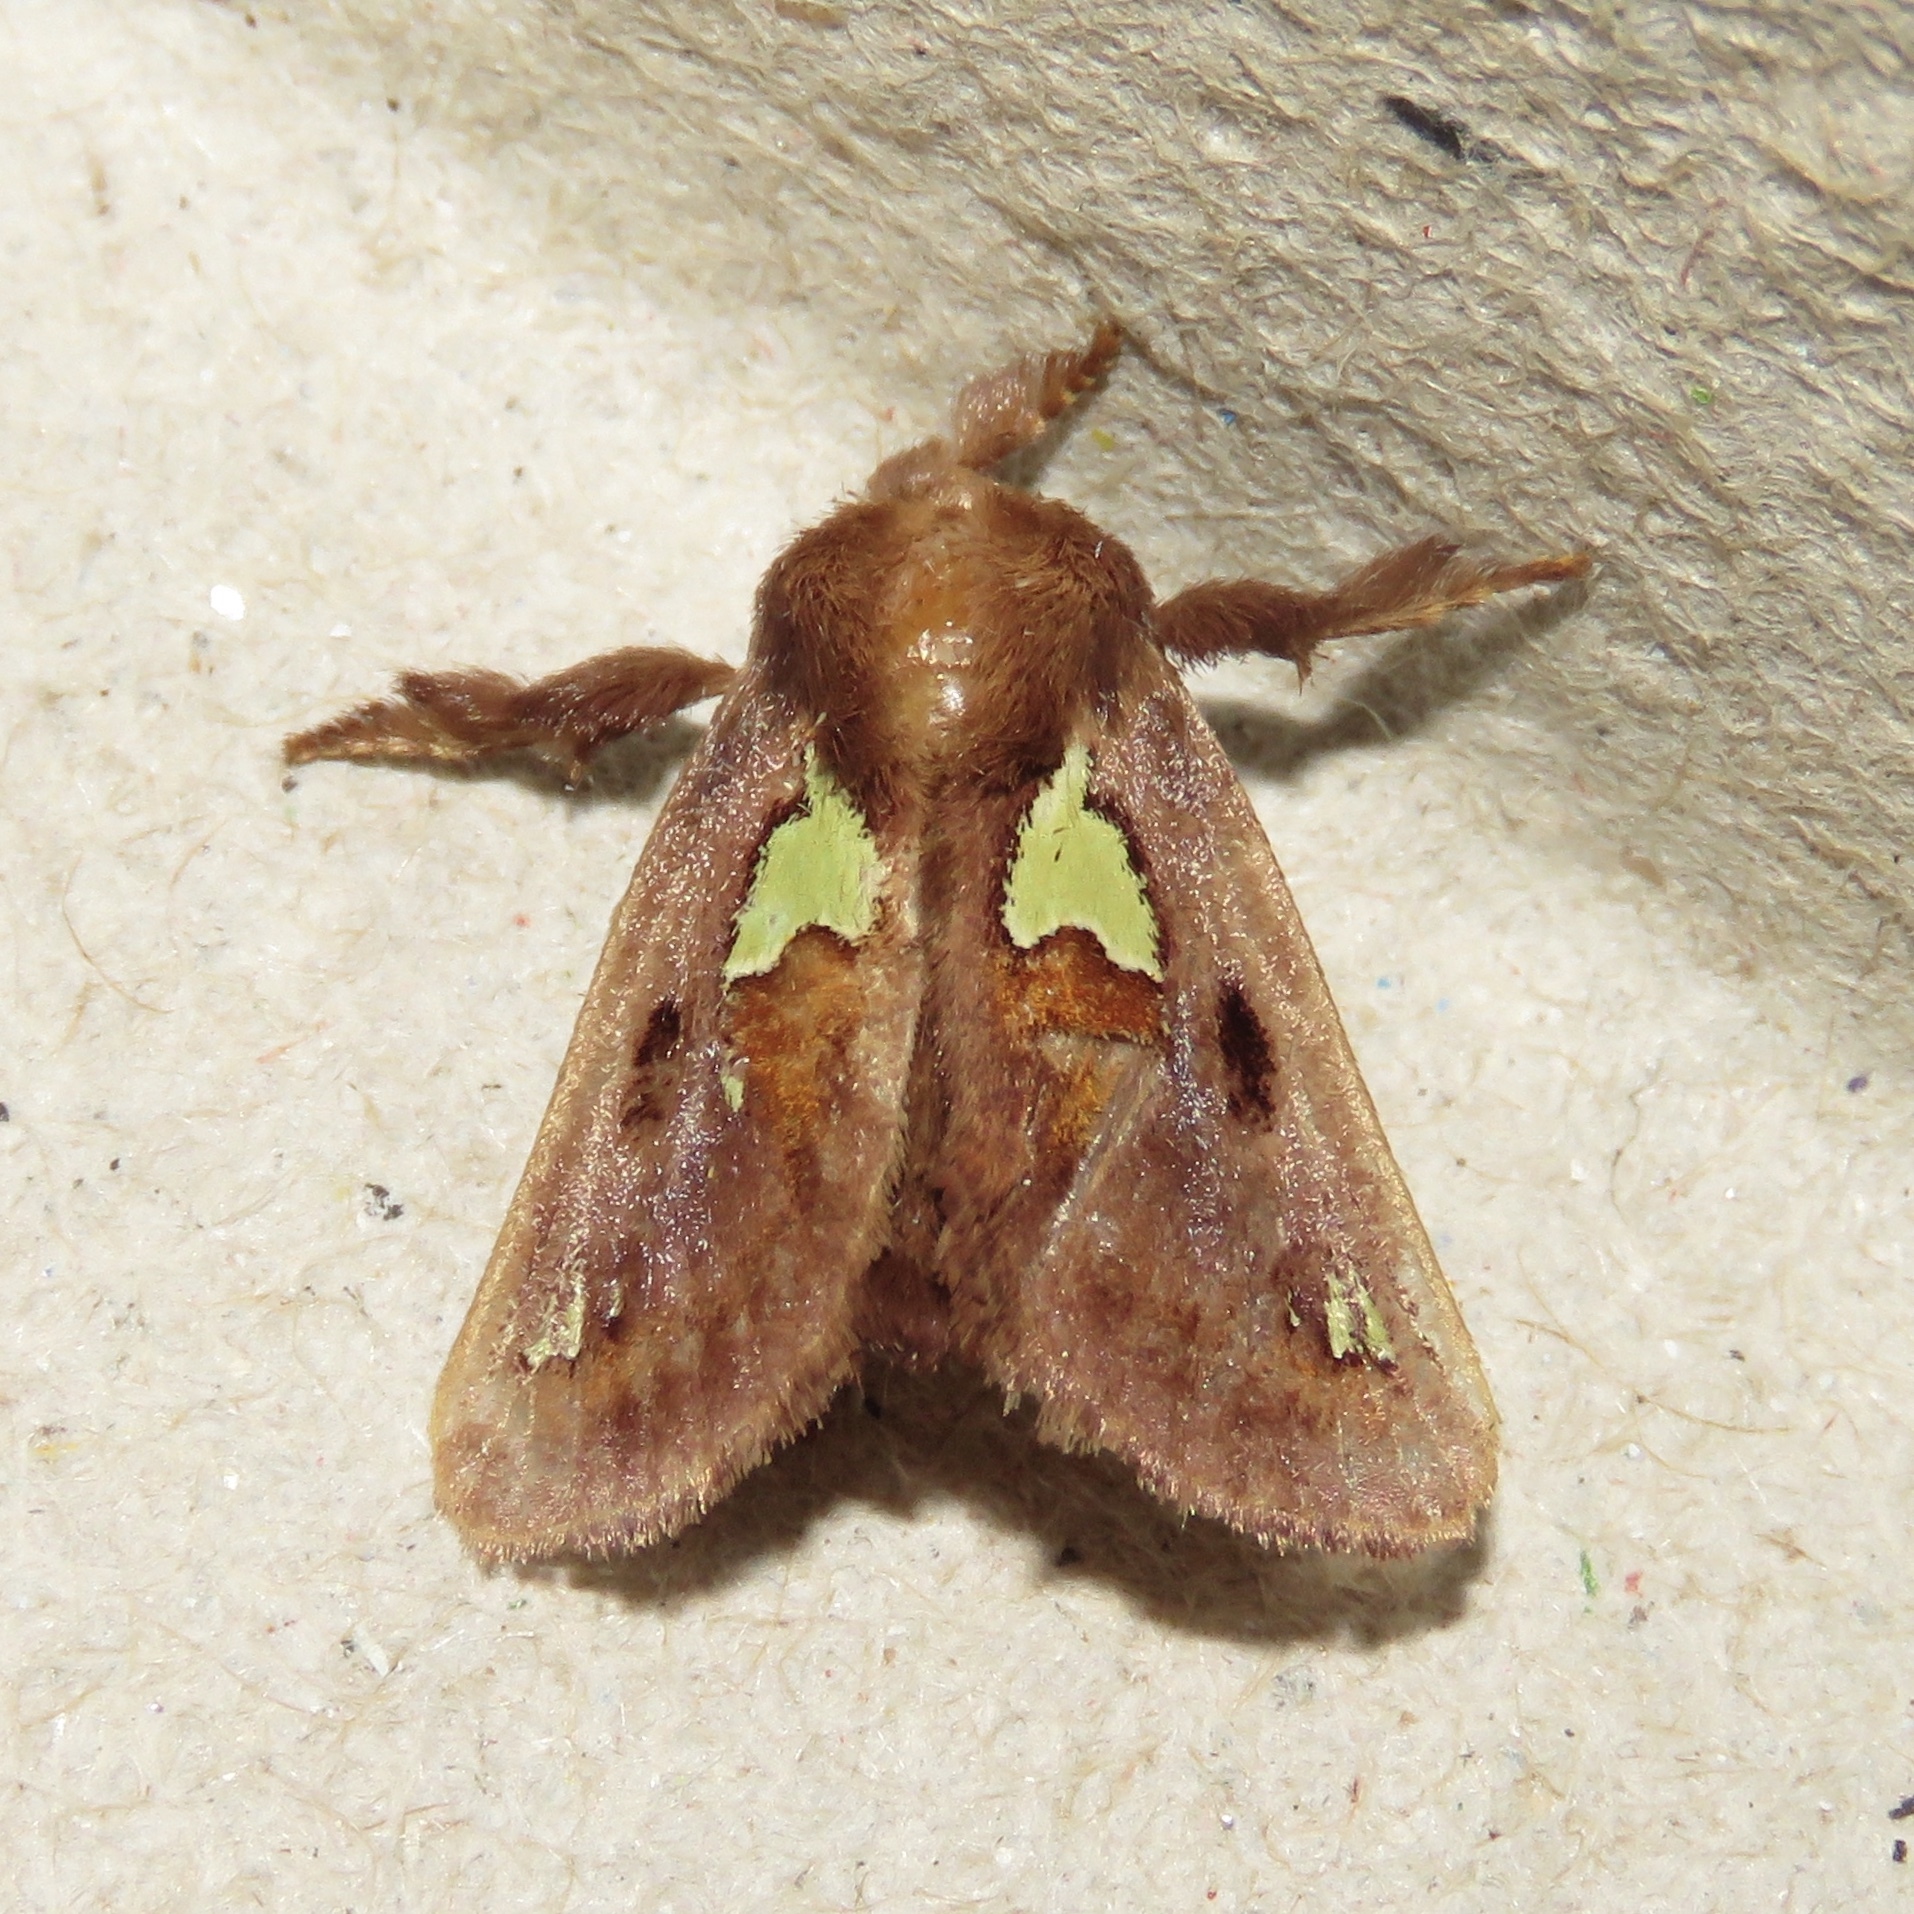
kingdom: Animalia
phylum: Arthropoda
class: Insecta
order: Lepidoptera
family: Limacodidae
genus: Euclea
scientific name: Euclea delphinii
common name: Spiny oak-slug moth
